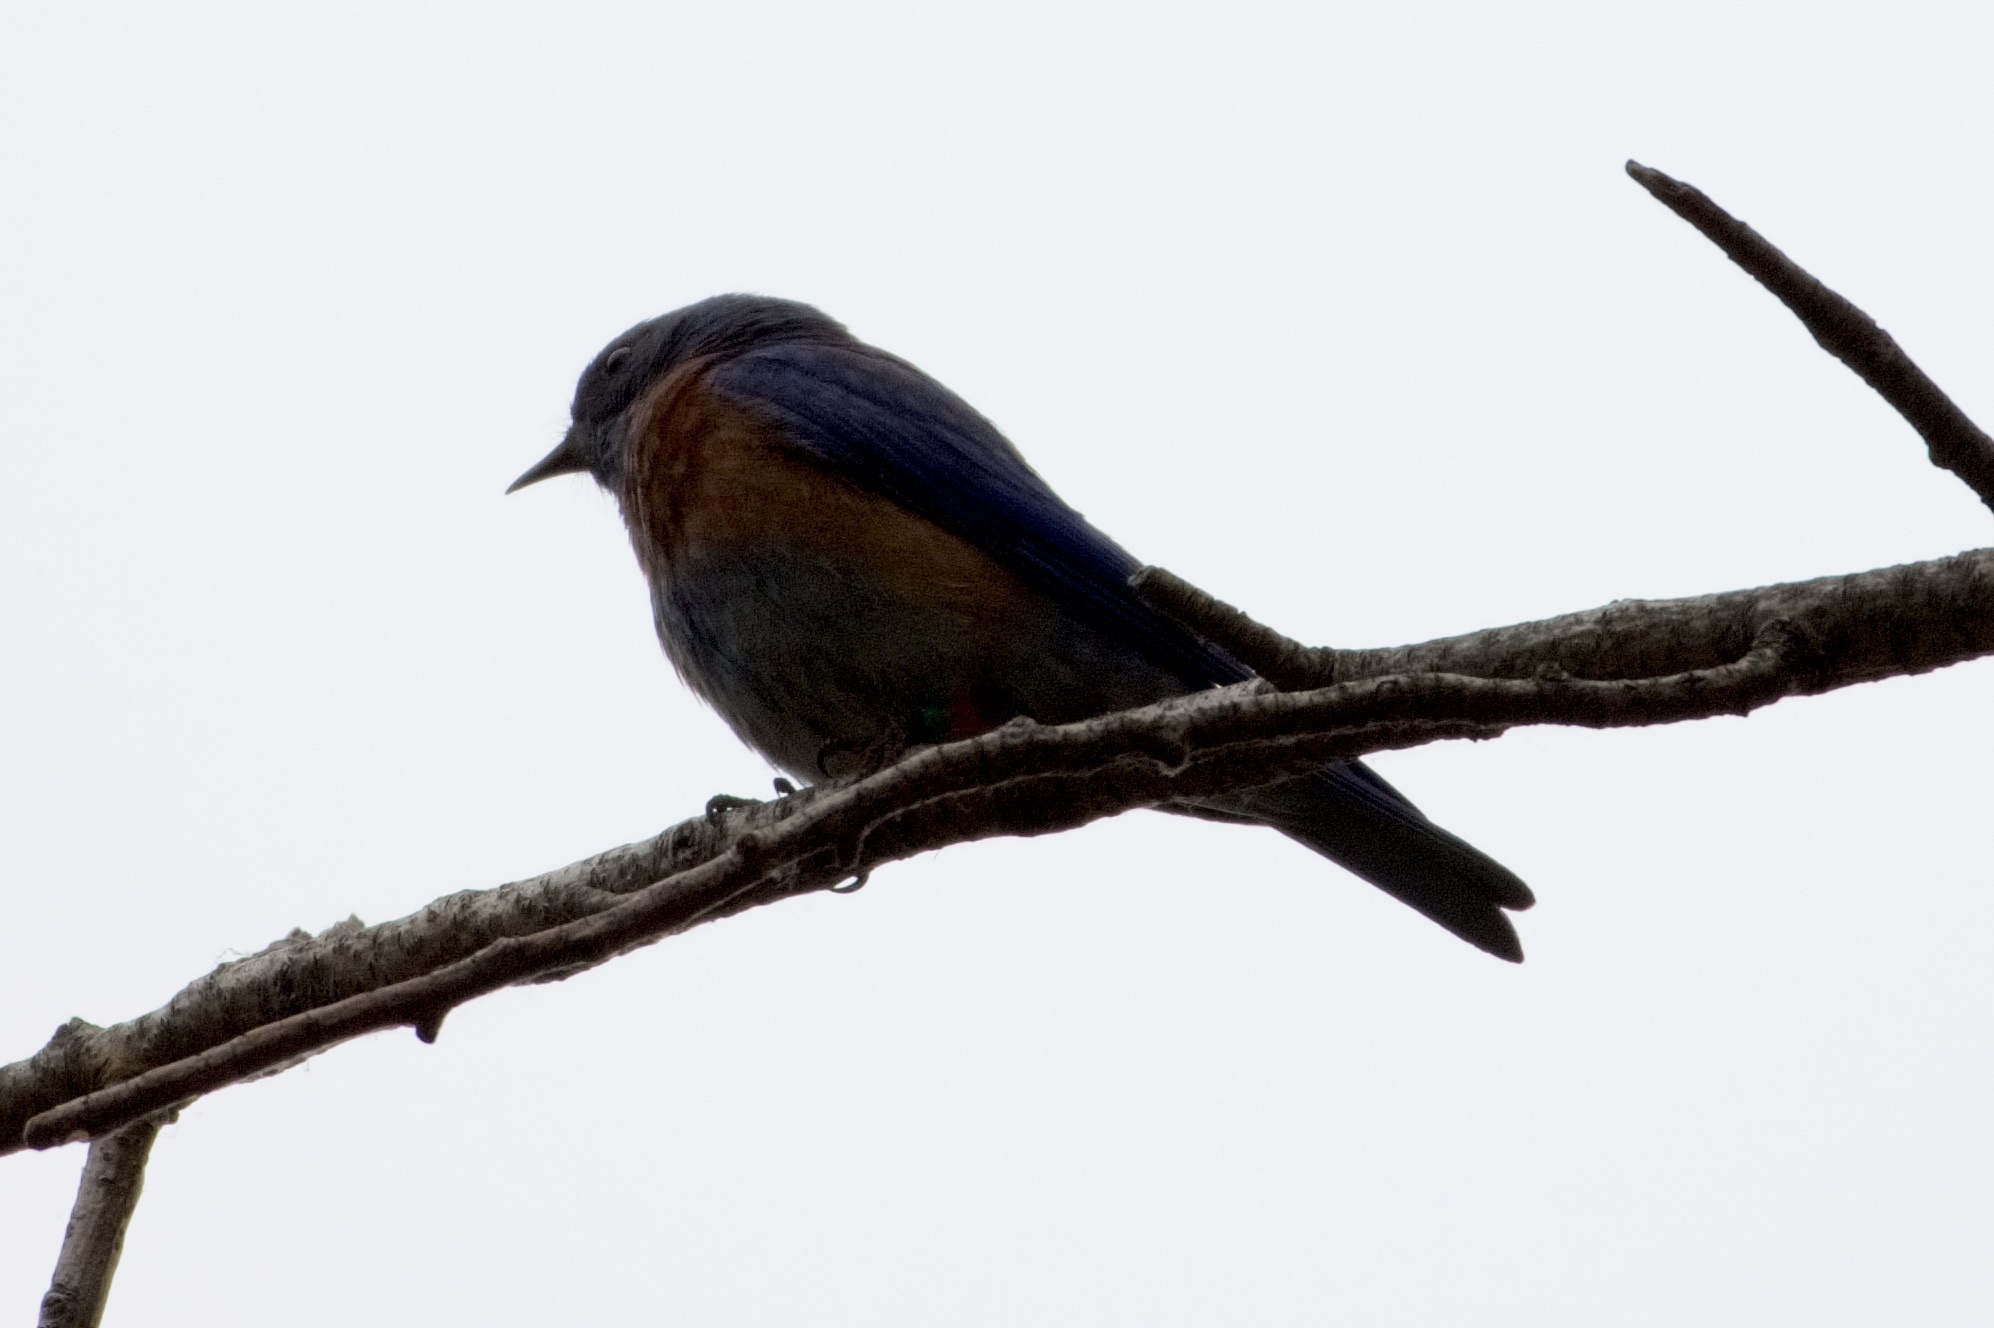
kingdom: Animalia
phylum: Chordata
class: Aves
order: Passeriformes
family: Turdidae
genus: Sialia
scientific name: Sialia mexicana
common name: Western bluebird
